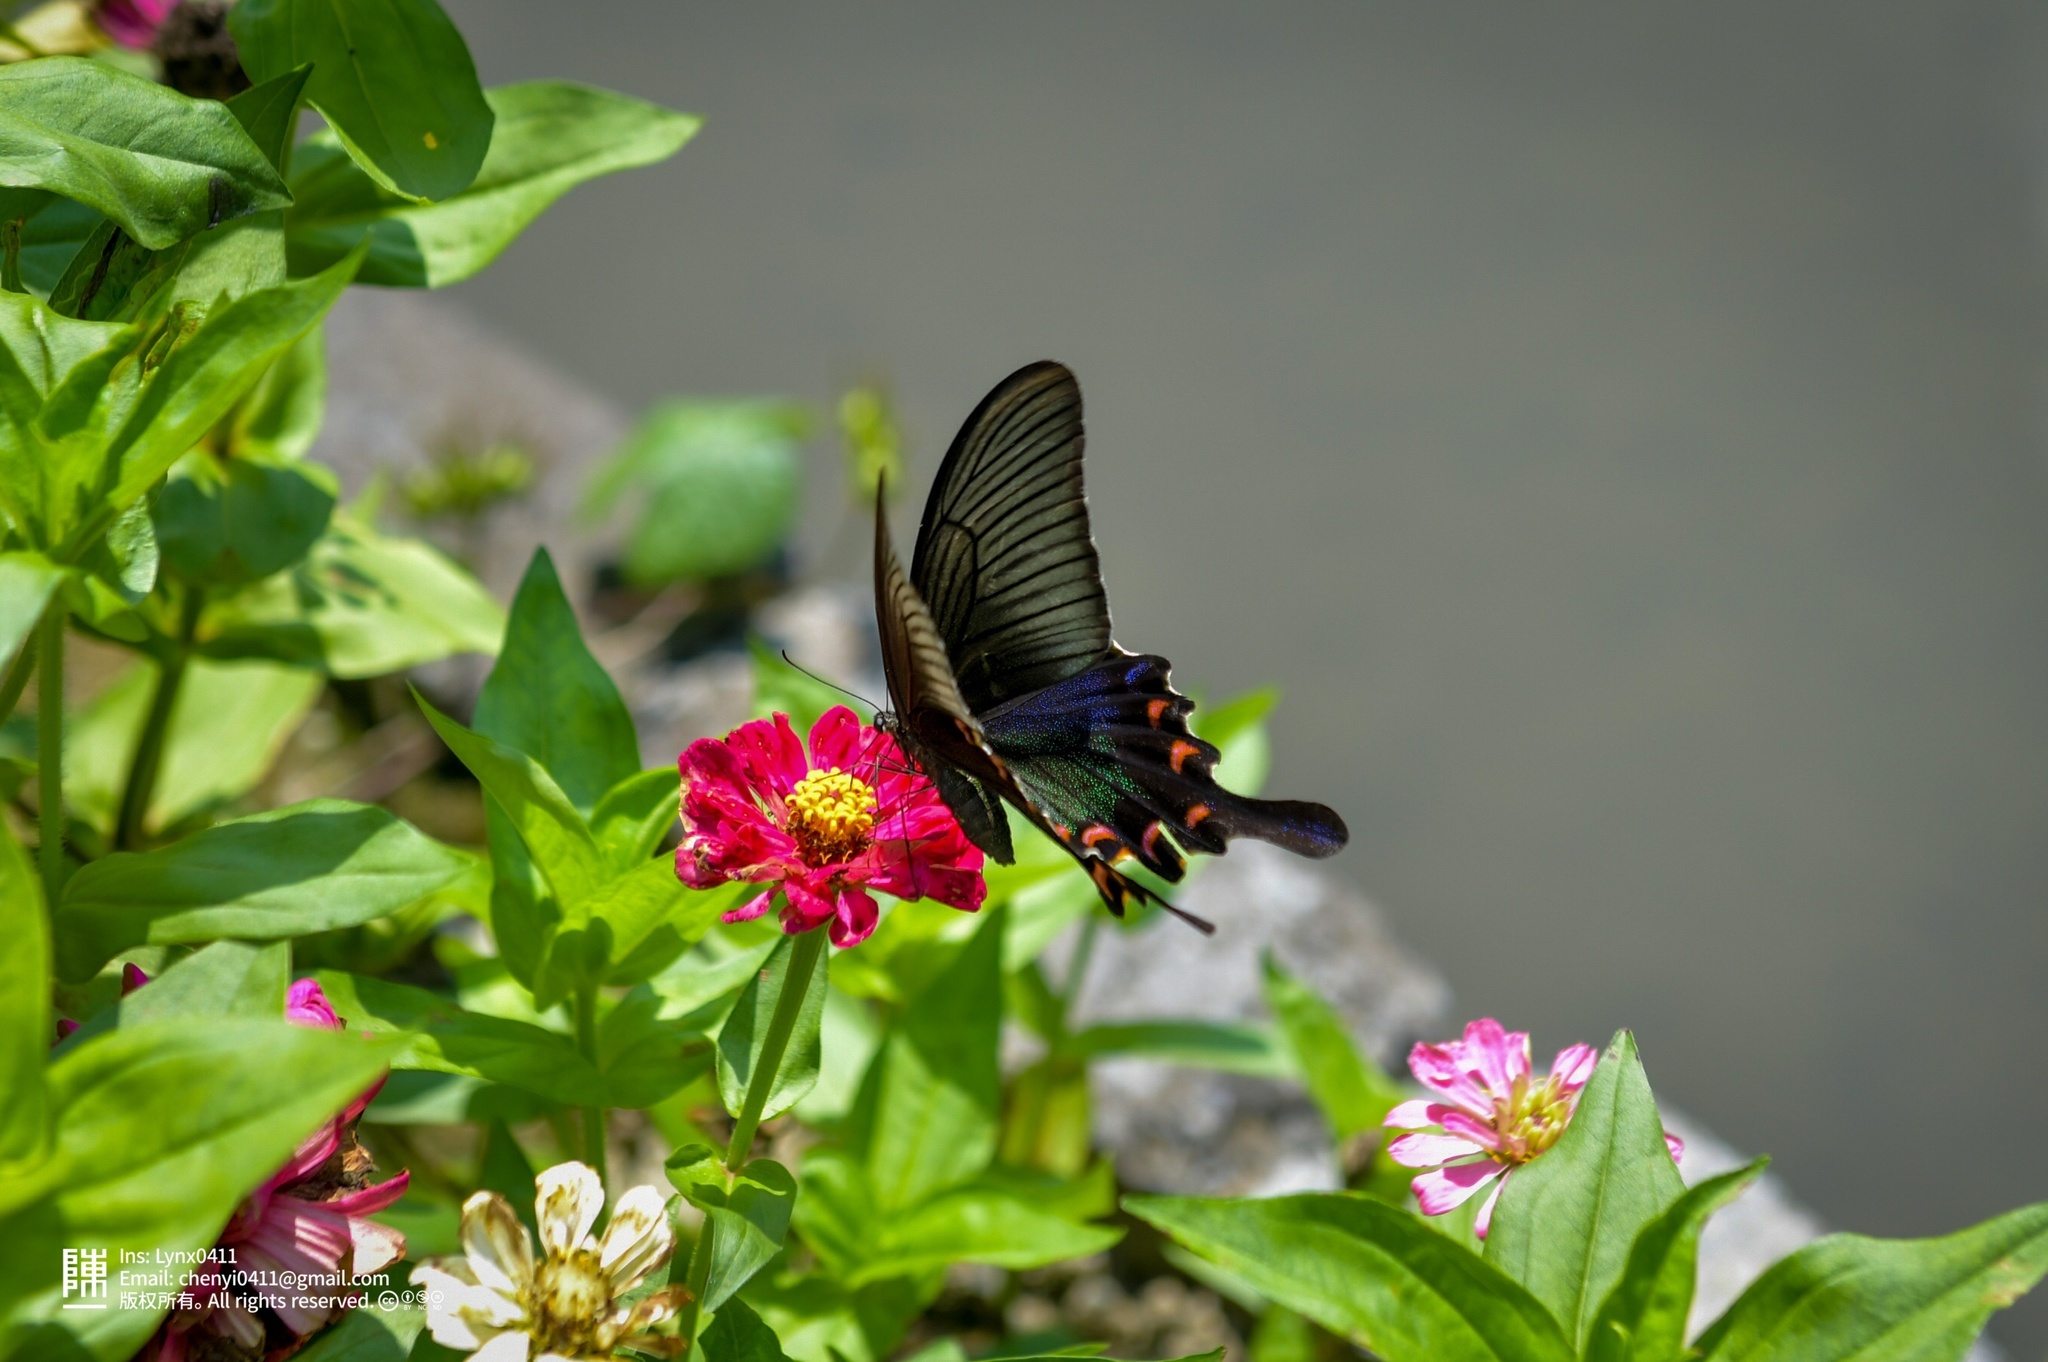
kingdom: Animalia
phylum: Arthropoda
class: Insecta
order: Lepidoptera
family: Papilionidae
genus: Papilio
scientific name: Papilio bianor
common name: Common peacock
